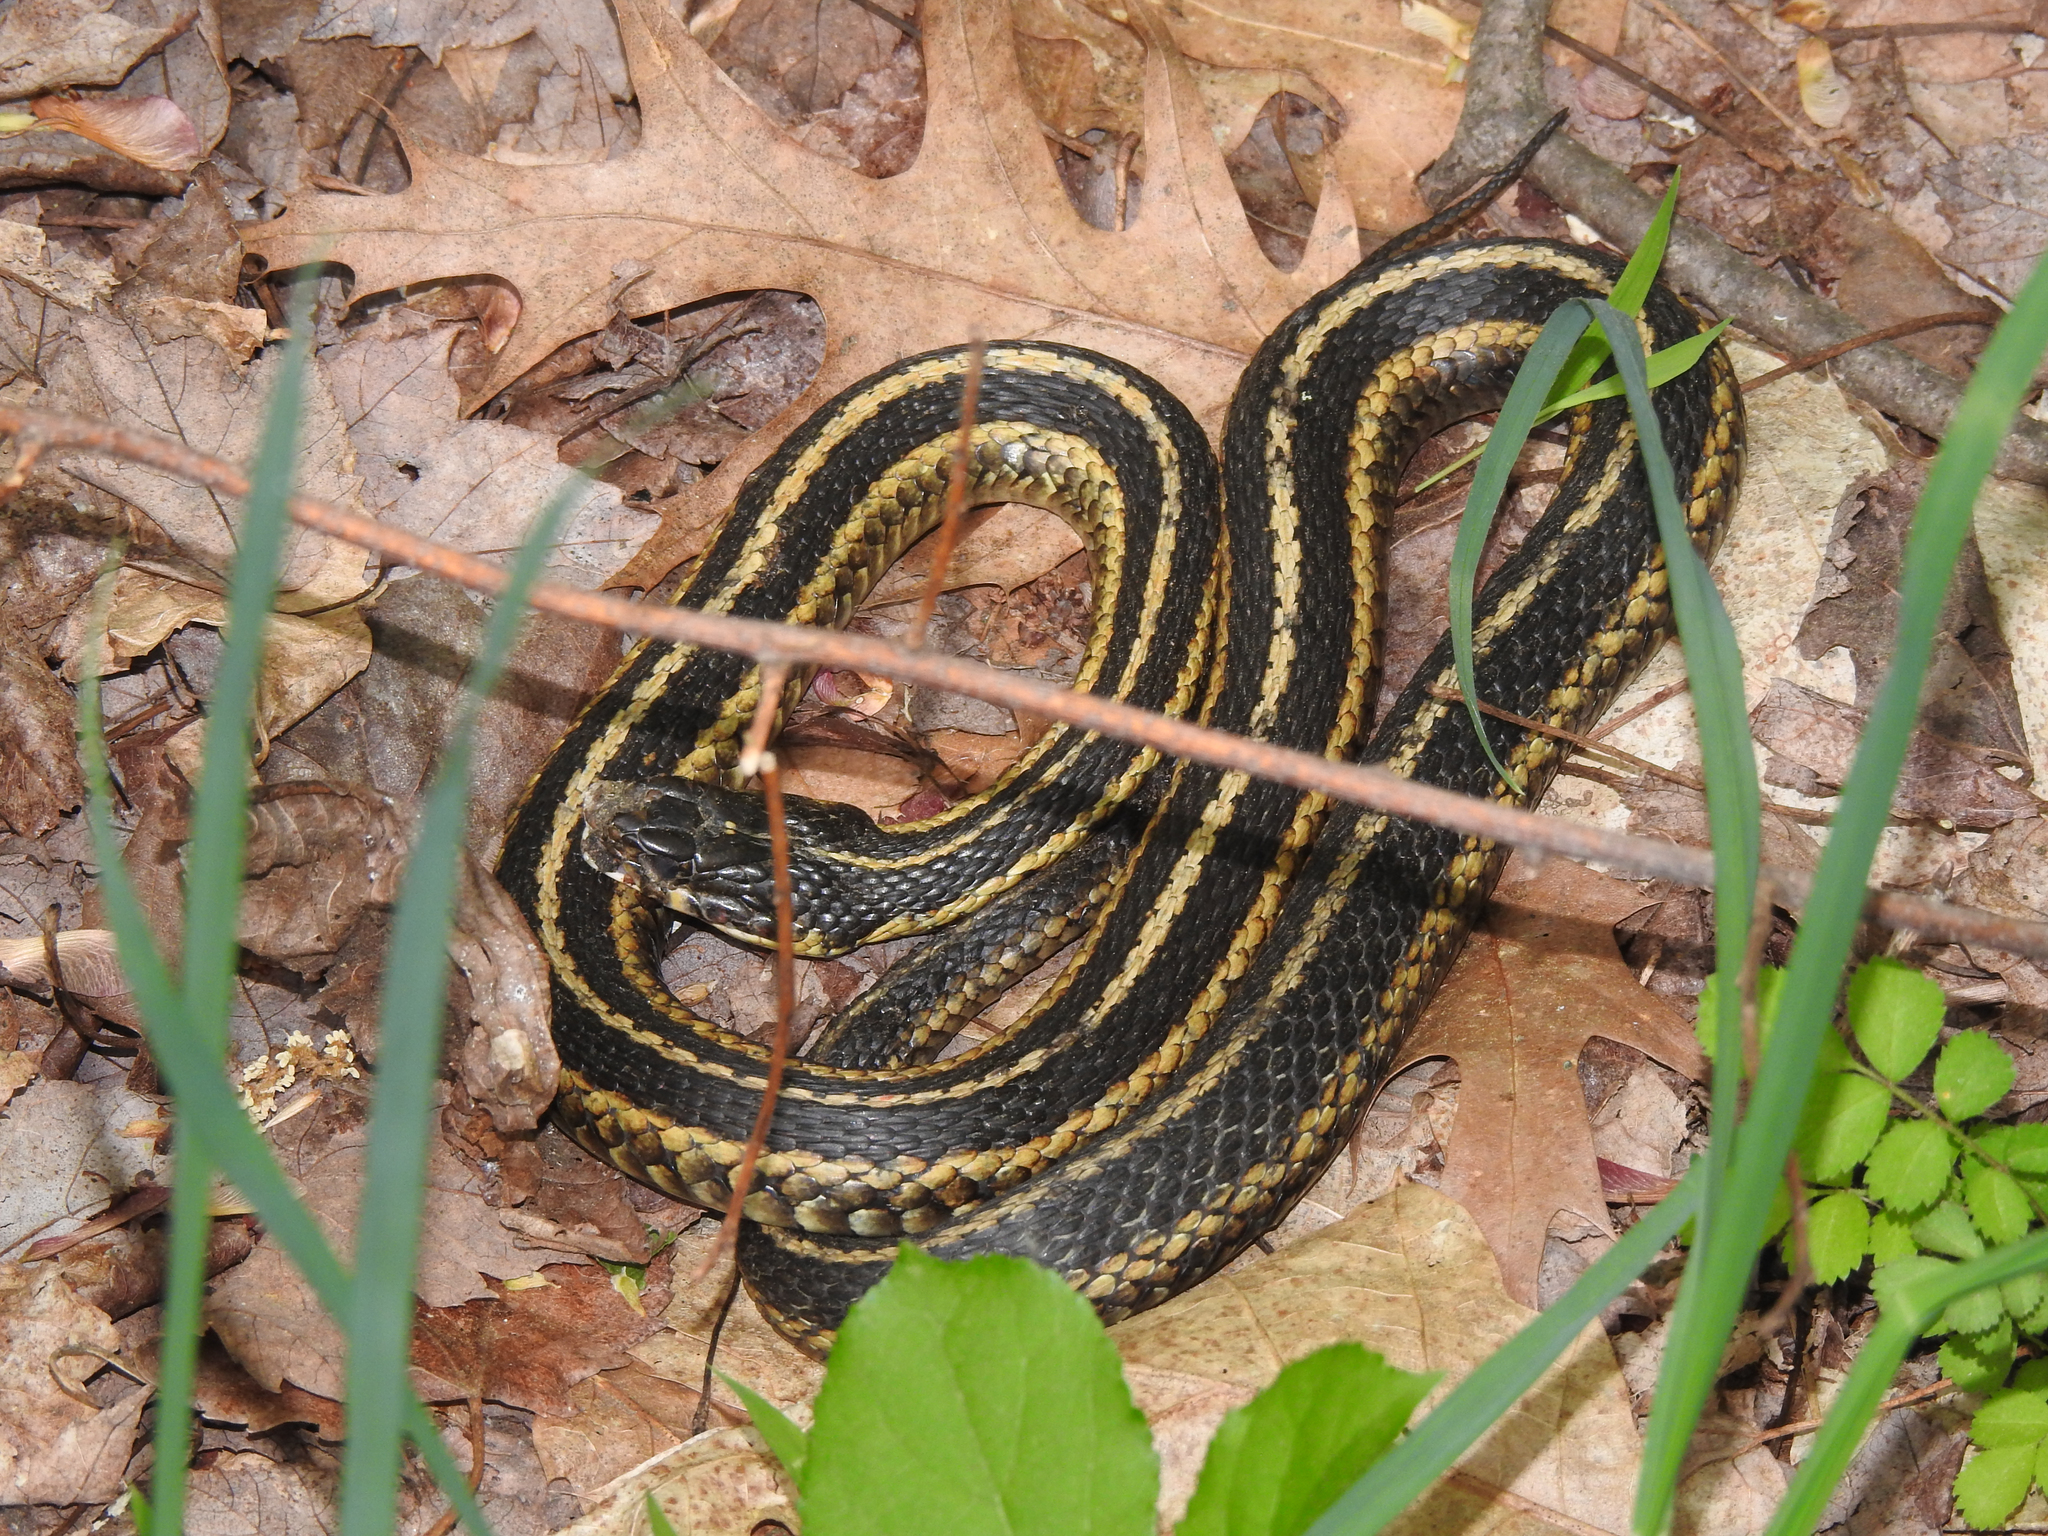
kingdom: Animalia
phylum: Chordata
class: Squamata
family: Colubridae
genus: Thamnophis
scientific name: Thamnophis sirtalis
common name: Common garter snake
